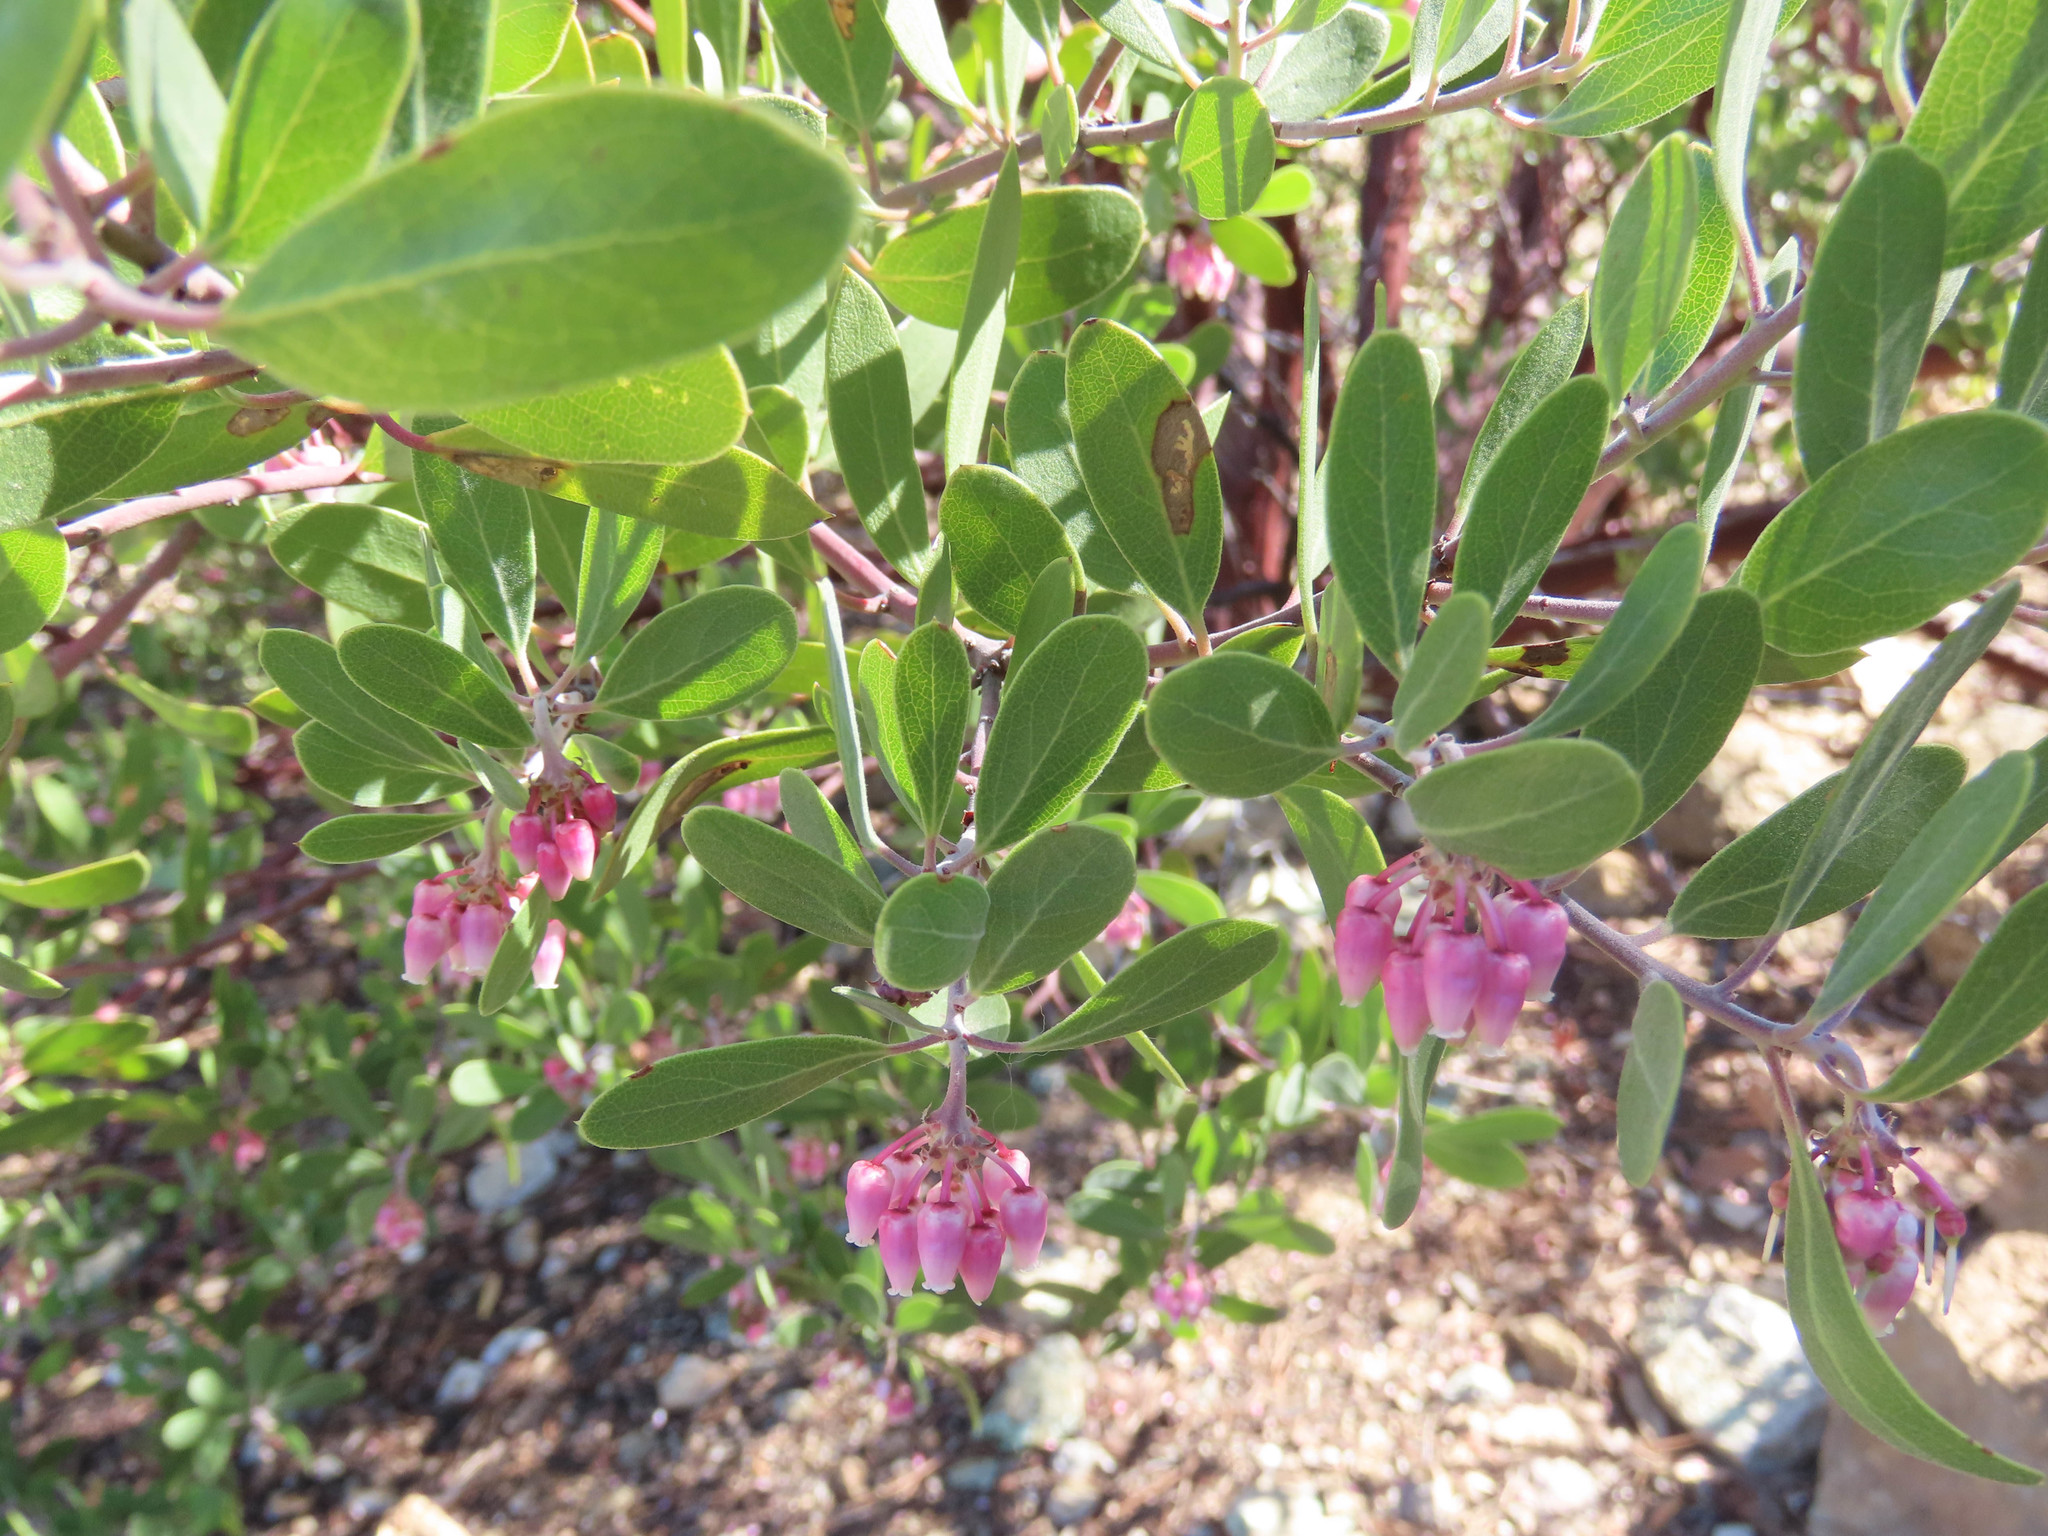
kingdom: Plantae
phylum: Tracheophyta
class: Magnoliopsida
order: Ericales
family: Ericaceae
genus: Arctostaphylos
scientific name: Arctostaphylos pungens
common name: Mexican manzanita
